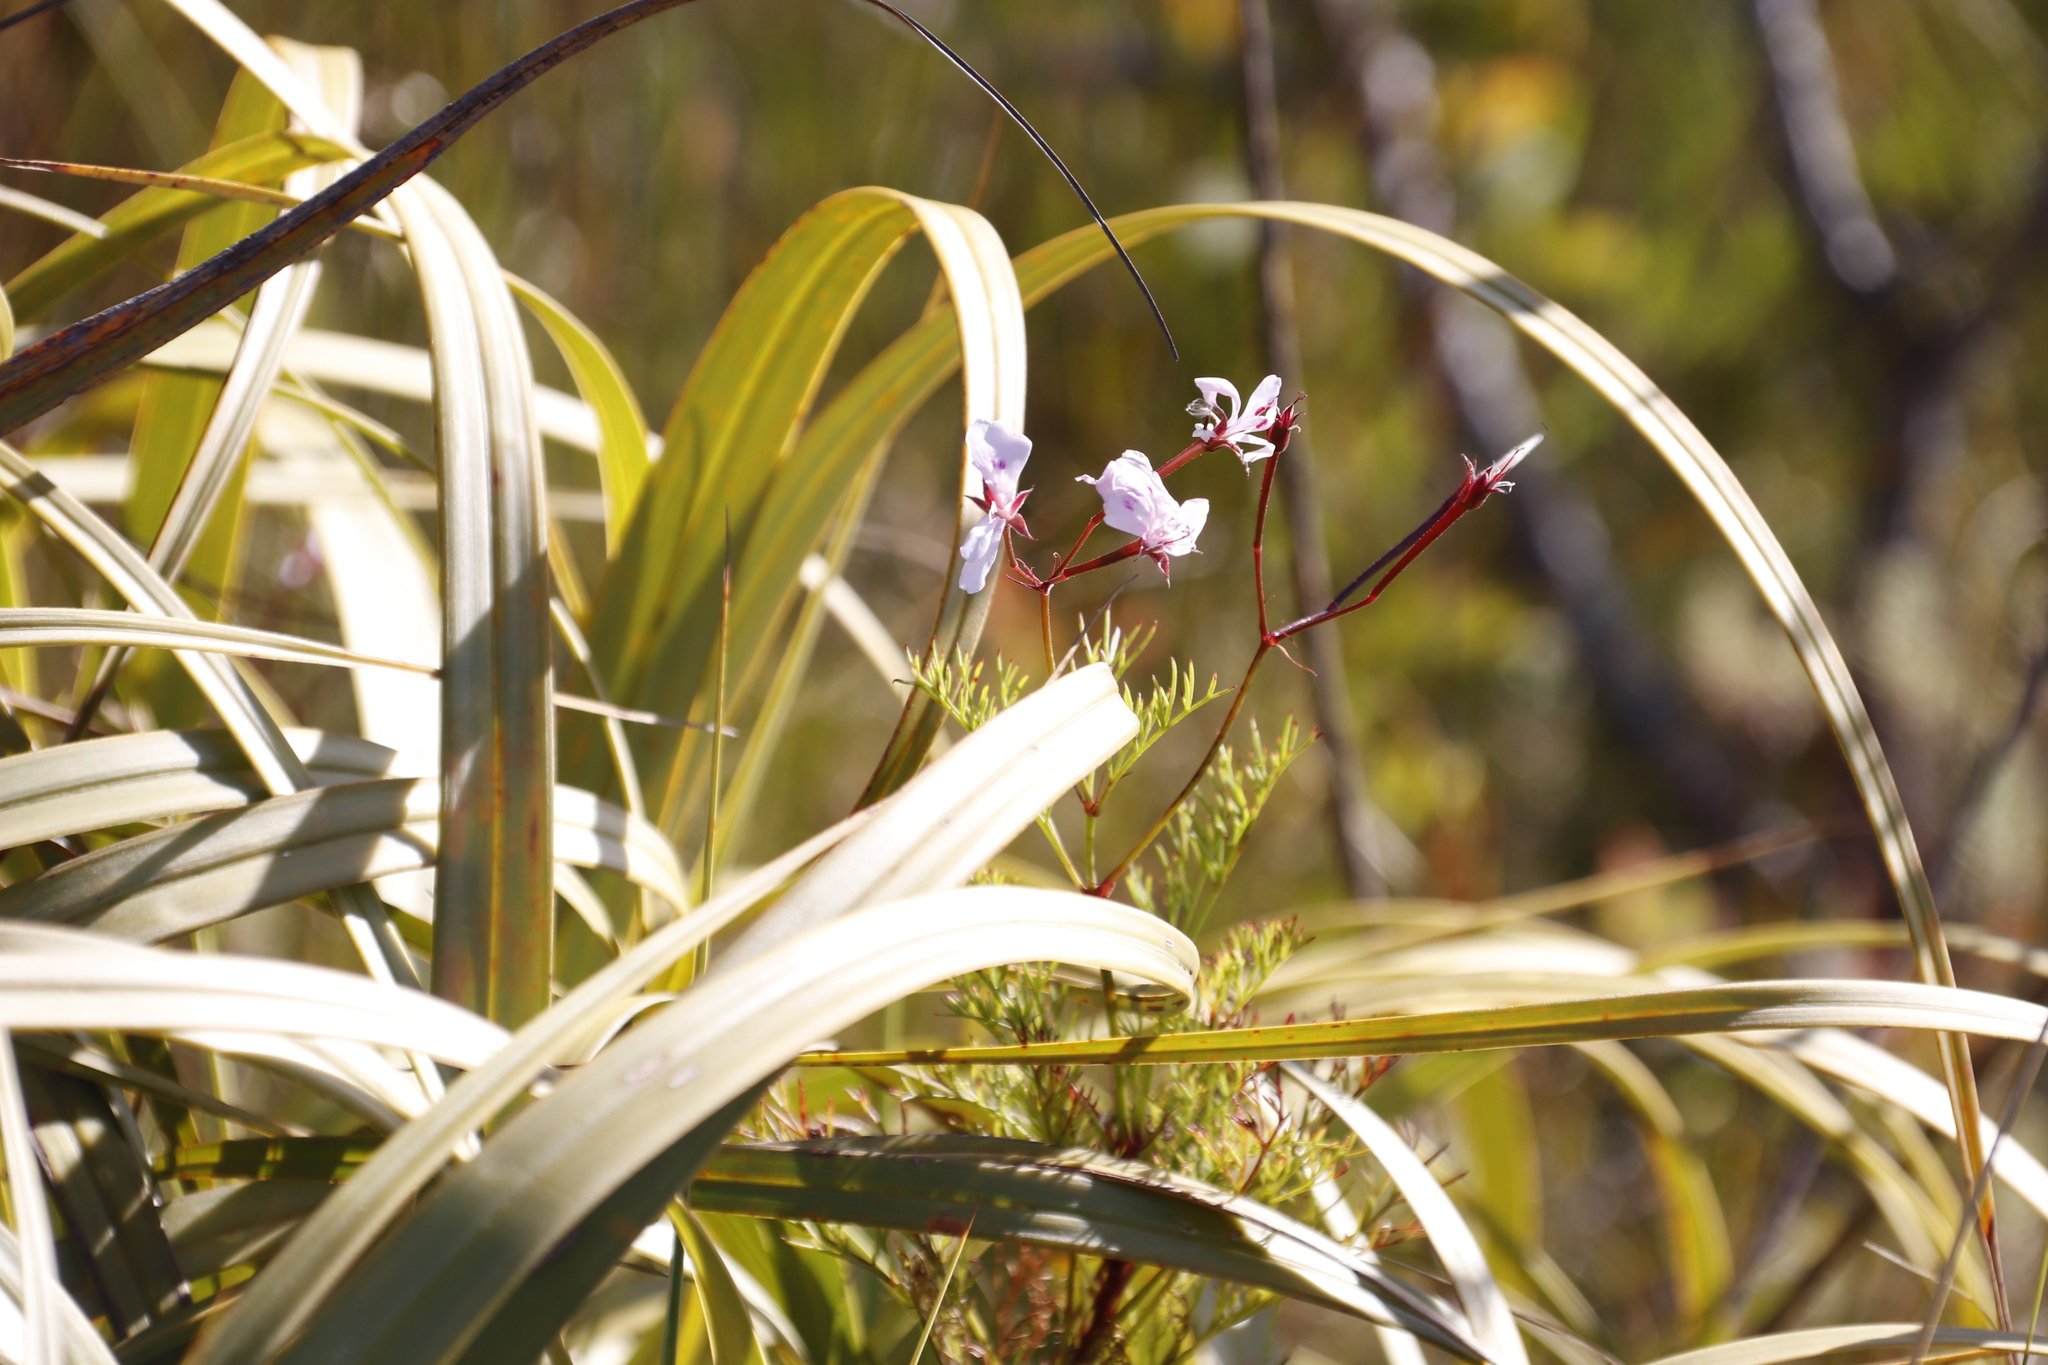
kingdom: Plantae
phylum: Tracheophyta
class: Magnoliopsida
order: Geraniales
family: Geraniaceae
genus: Pelargonium
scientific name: Pelargonium artemisiifolium
